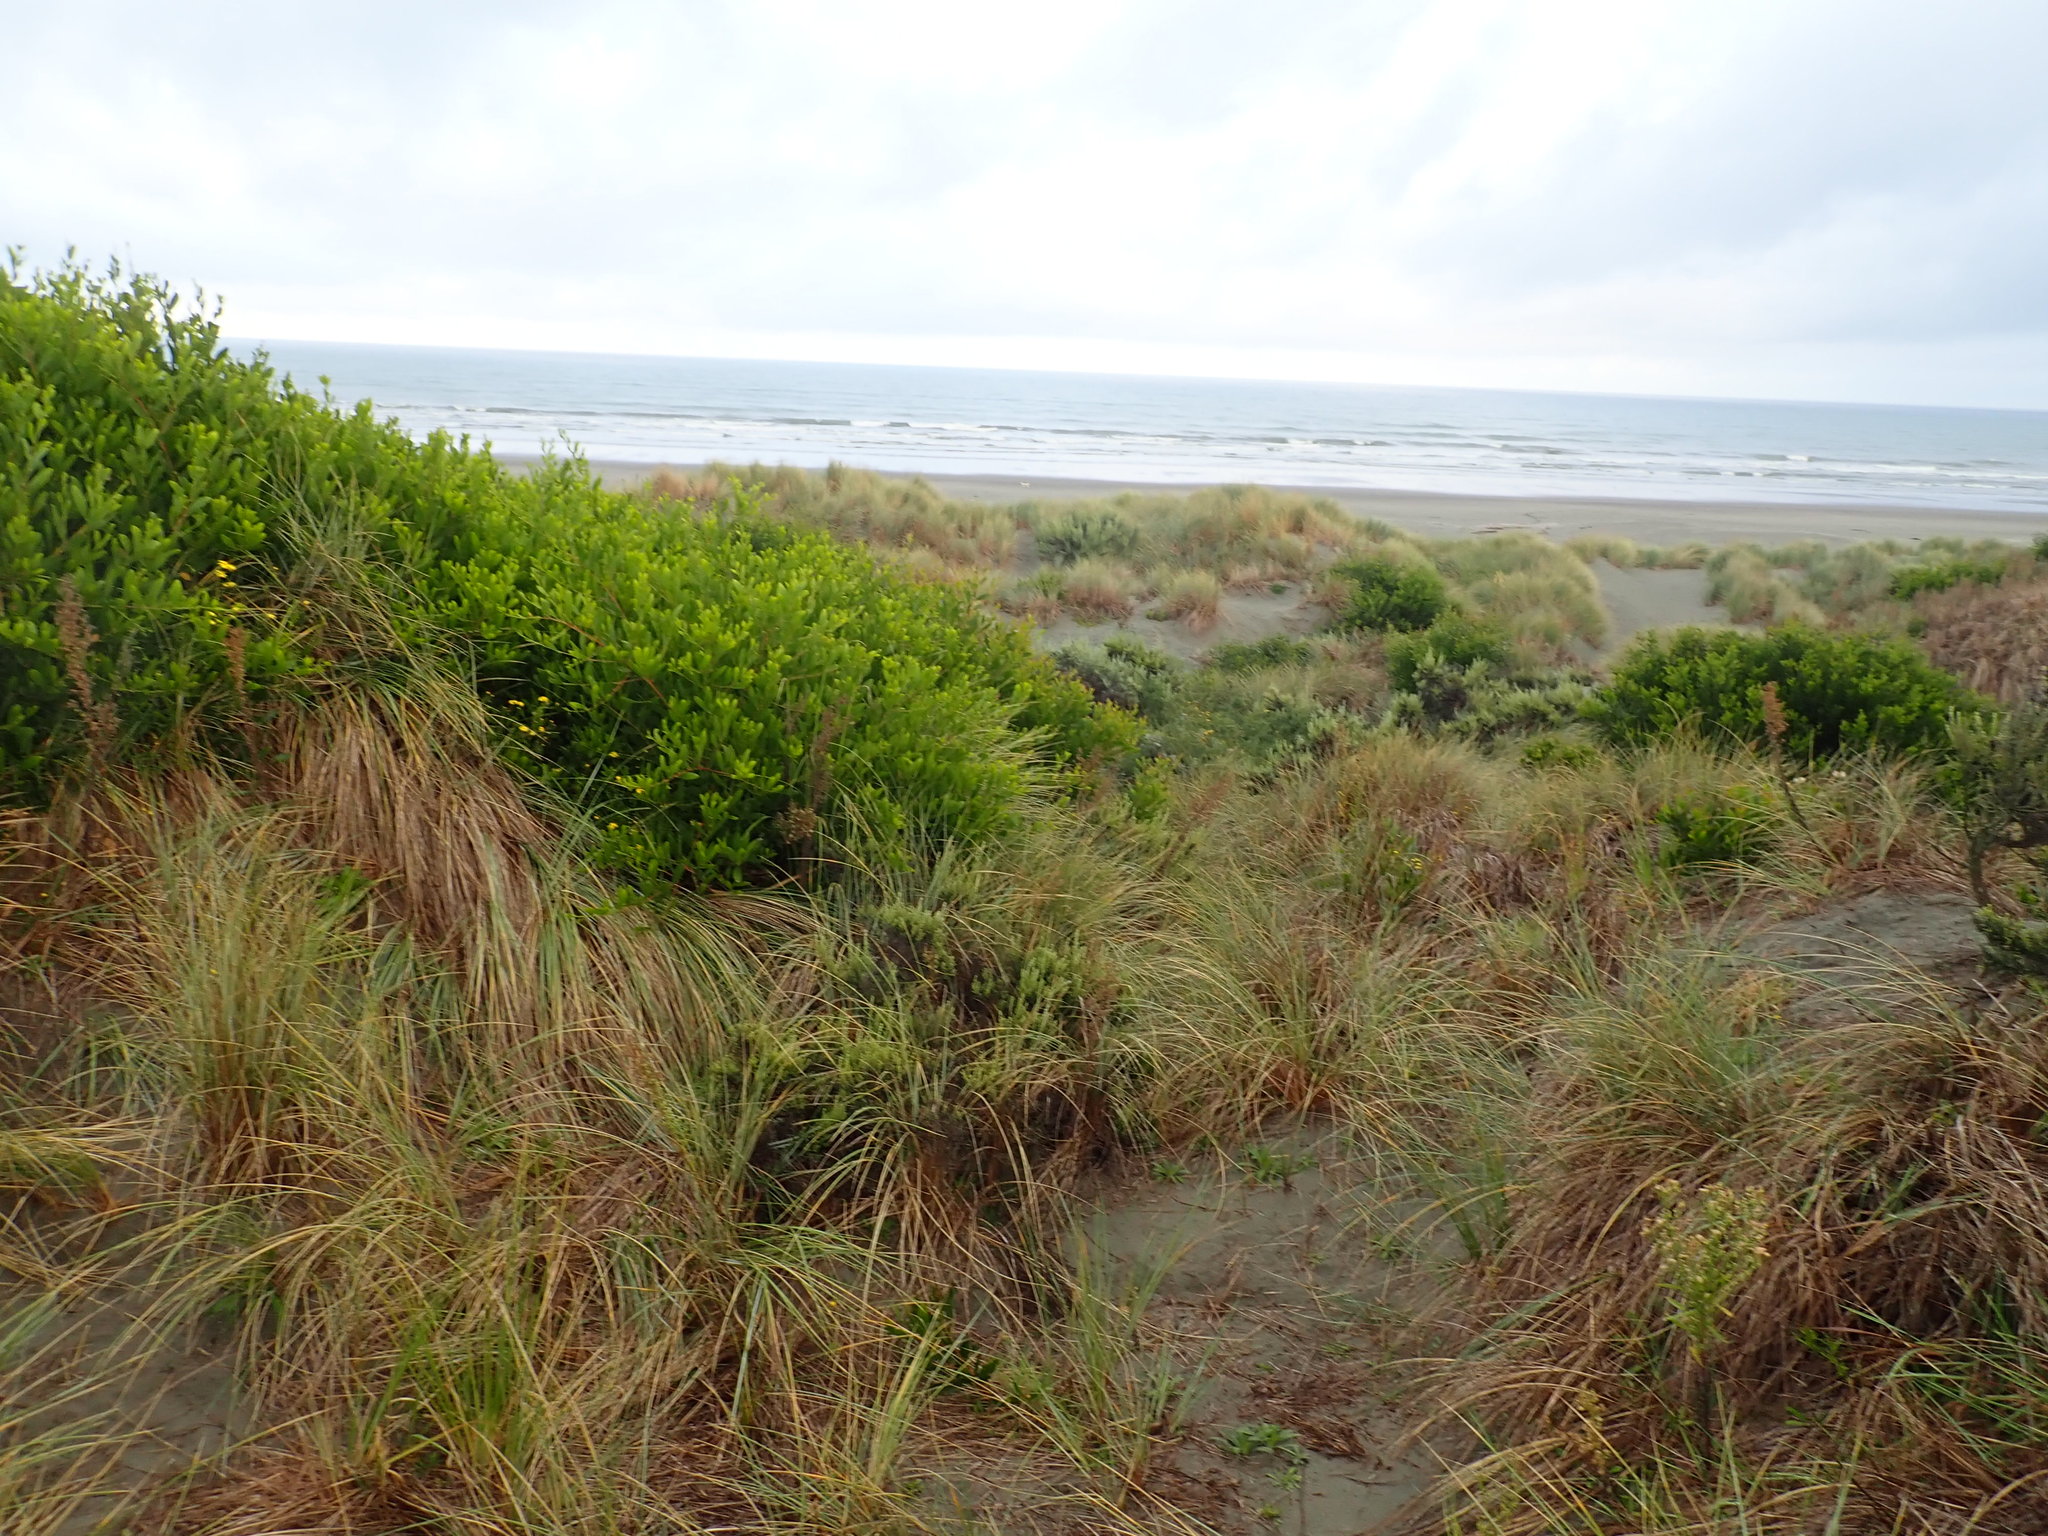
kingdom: Plantae
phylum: Tracheophyta
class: Magnoliopsida
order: Fabales
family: Fabaceae
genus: Acacia
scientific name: Acacia longifolia
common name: Sydney golden wattle
